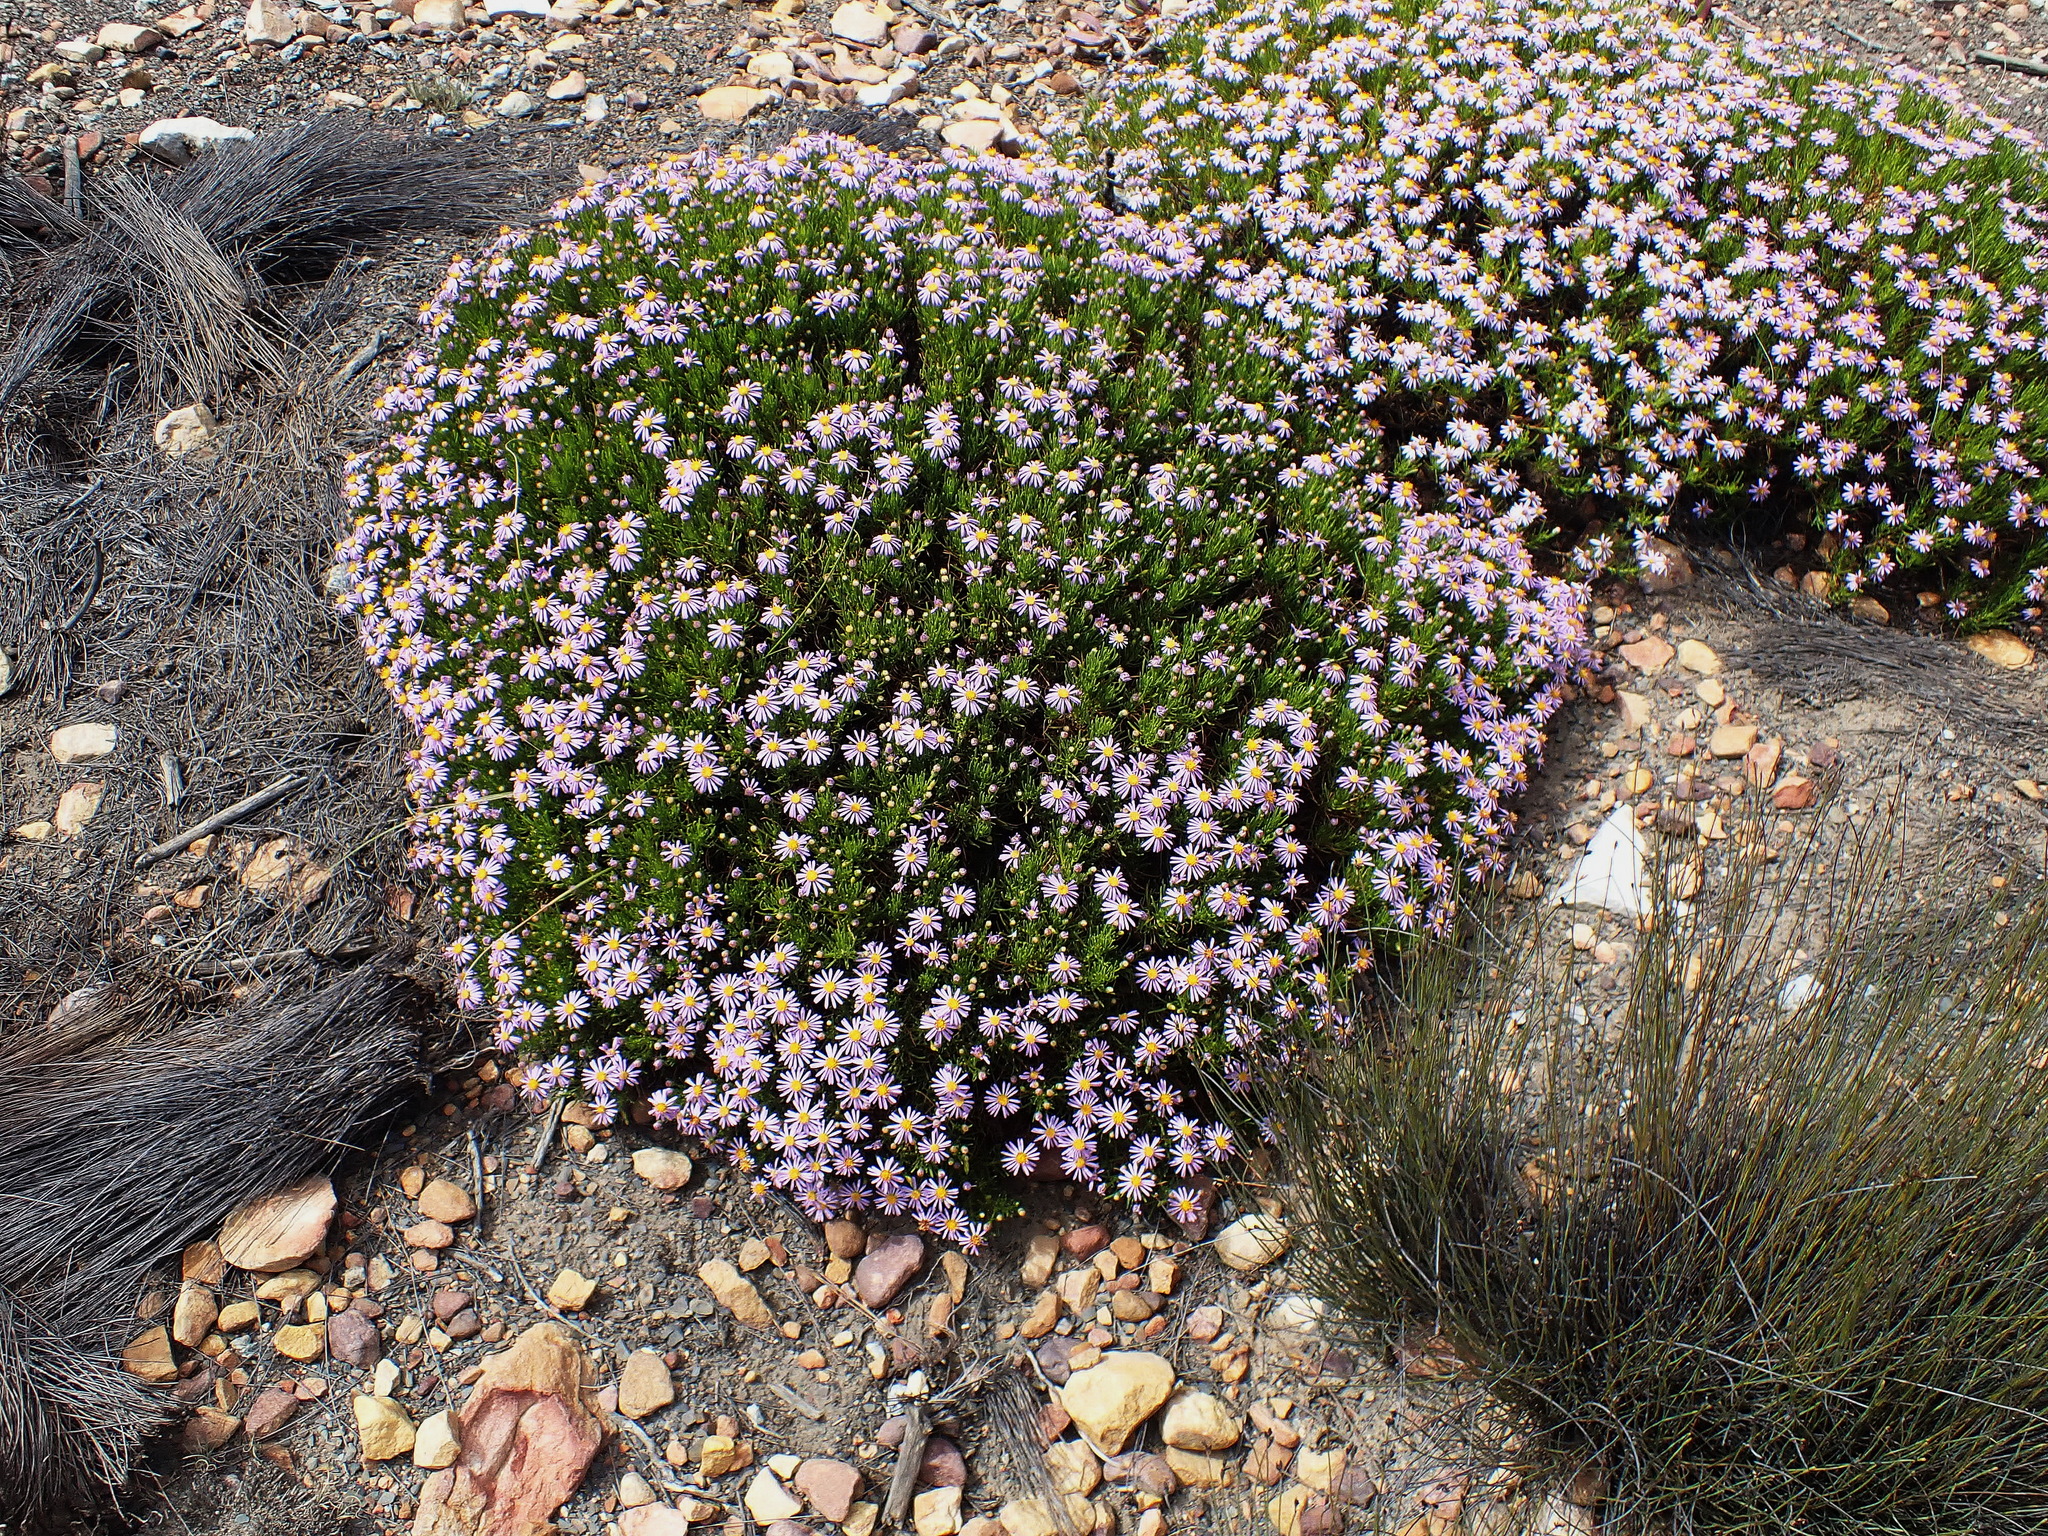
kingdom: Plantae
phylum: Tracheophyta
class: Magnoliopsida
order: Asterales
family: Asteraceae
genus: Felicia
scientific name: Felicia filifolia
